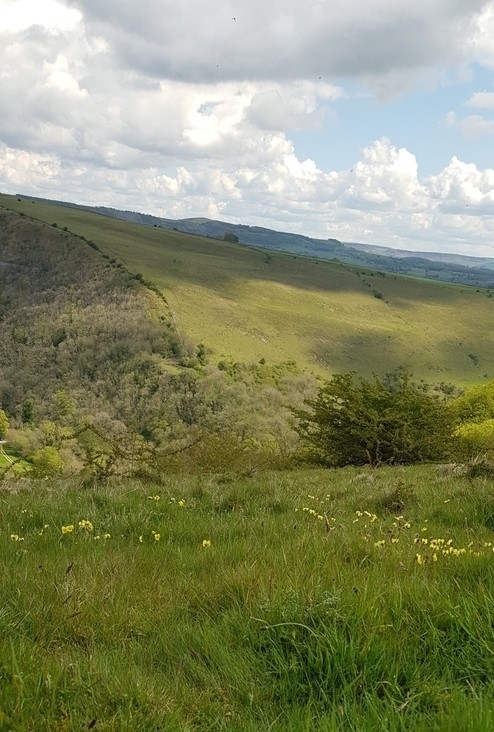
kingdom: Plantae
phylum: Tracheophyta
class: Magnoliopsida
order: Malpighiales
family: Violaceae
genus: Viola
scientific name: Viola lutea
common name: Mountain pansy
